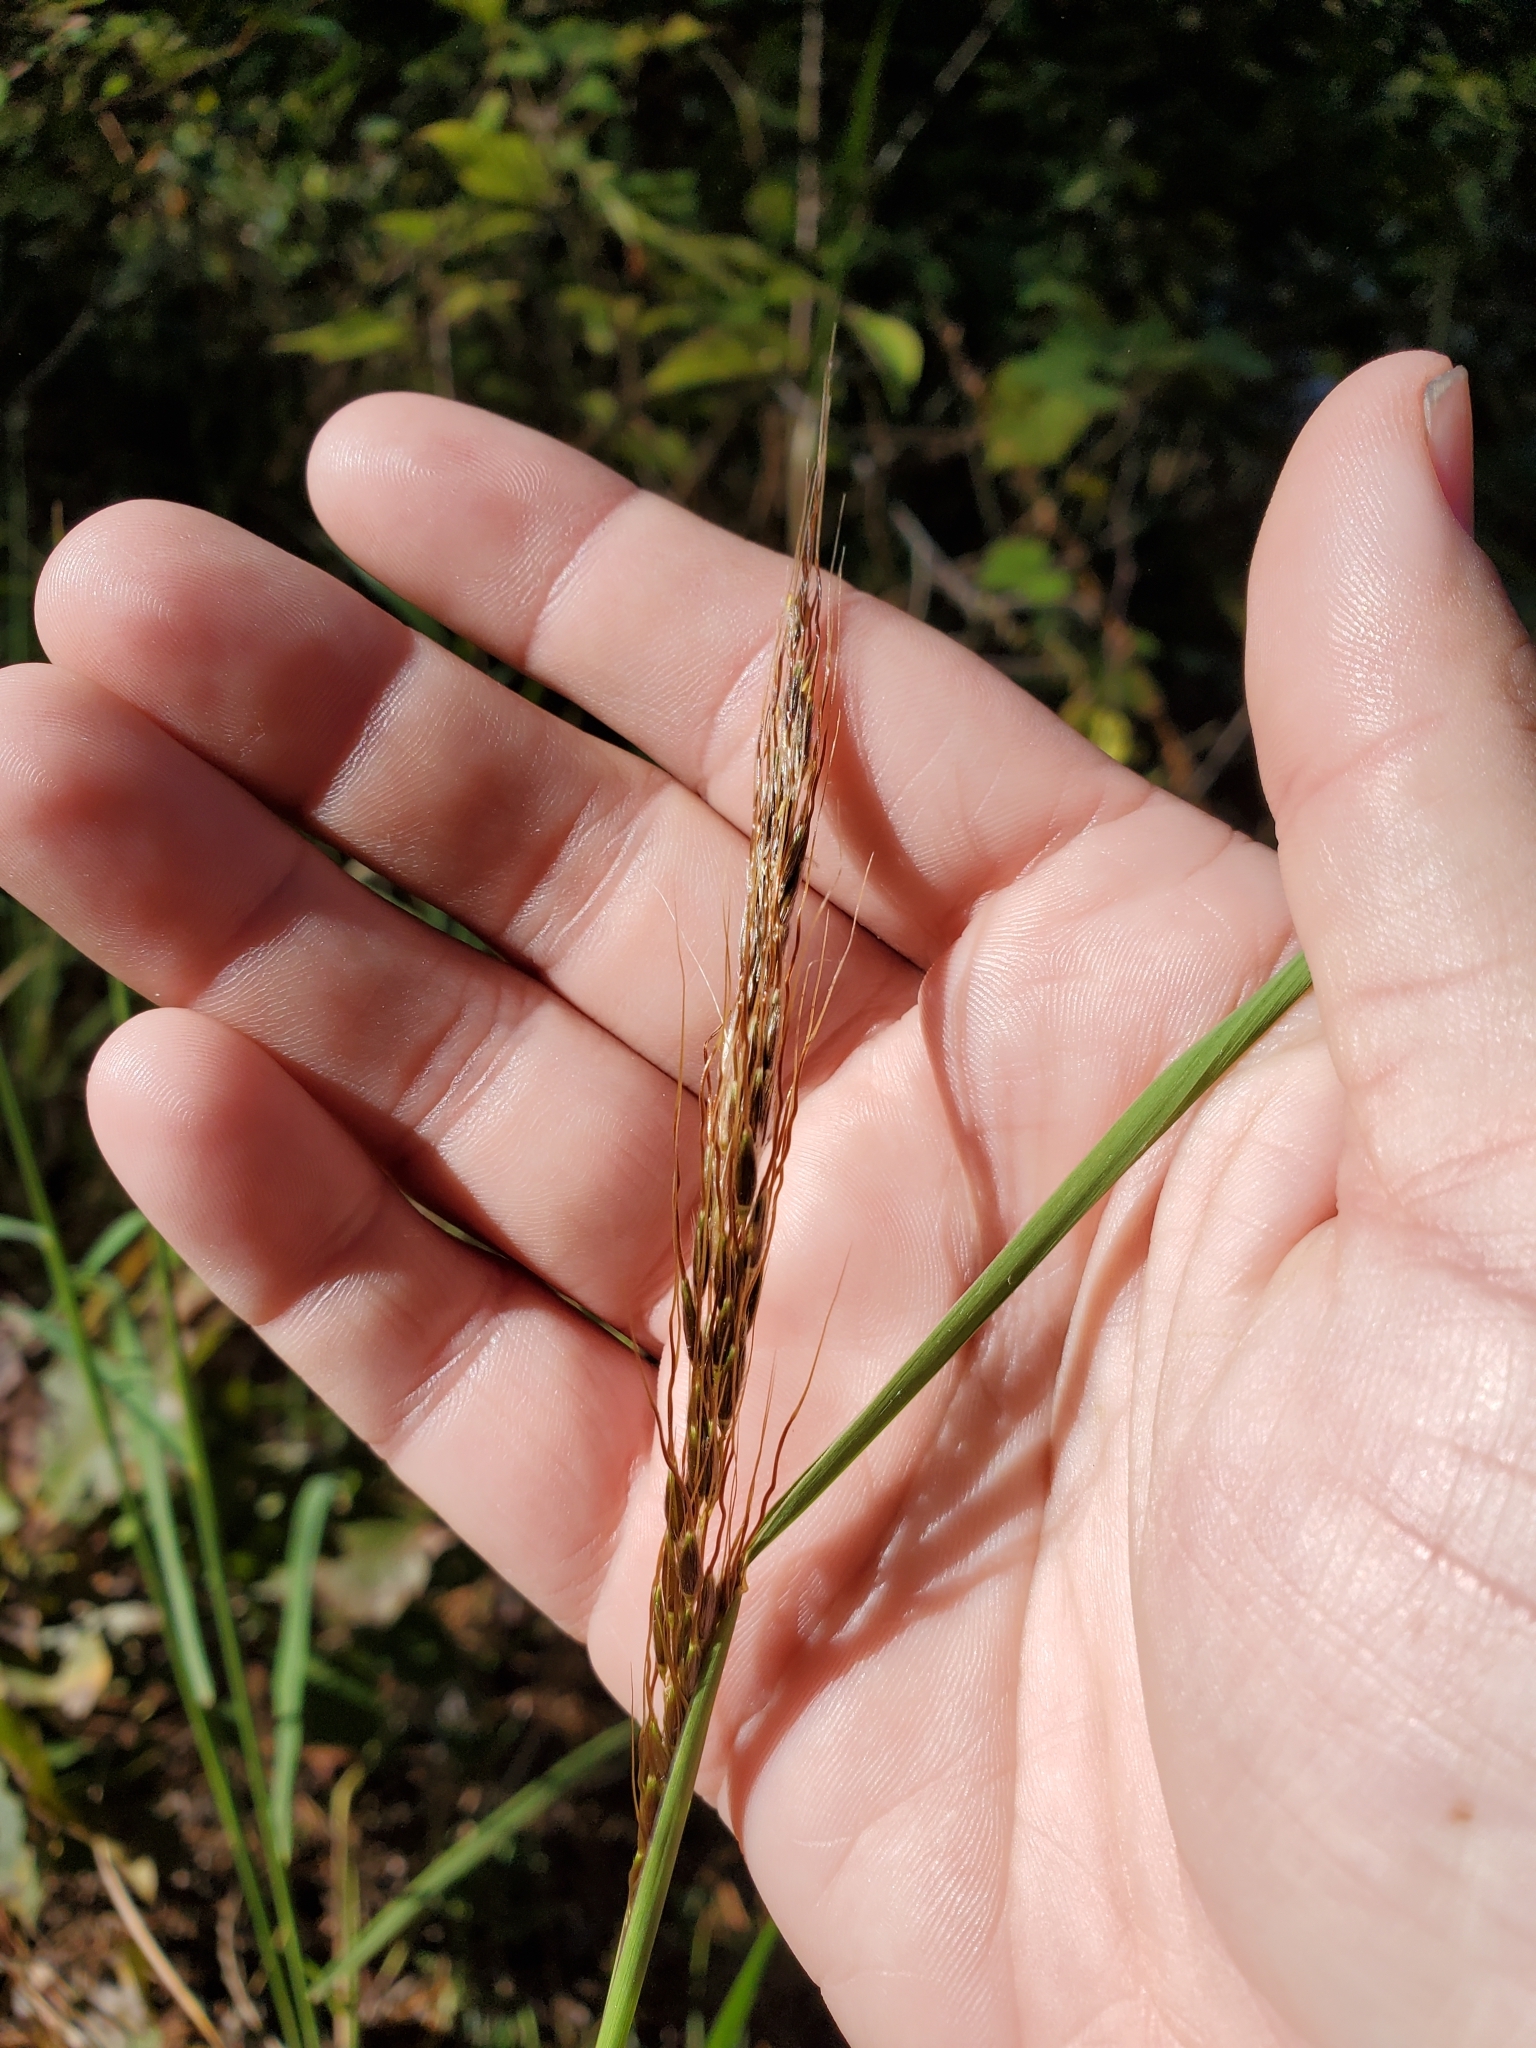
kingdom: Plantae
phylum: Tracheophyta
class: Liliopsida
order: Poales
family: Poaceae
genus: Sorghastrum
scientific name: Sorghastrum elliottii
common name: Slender indian grass
